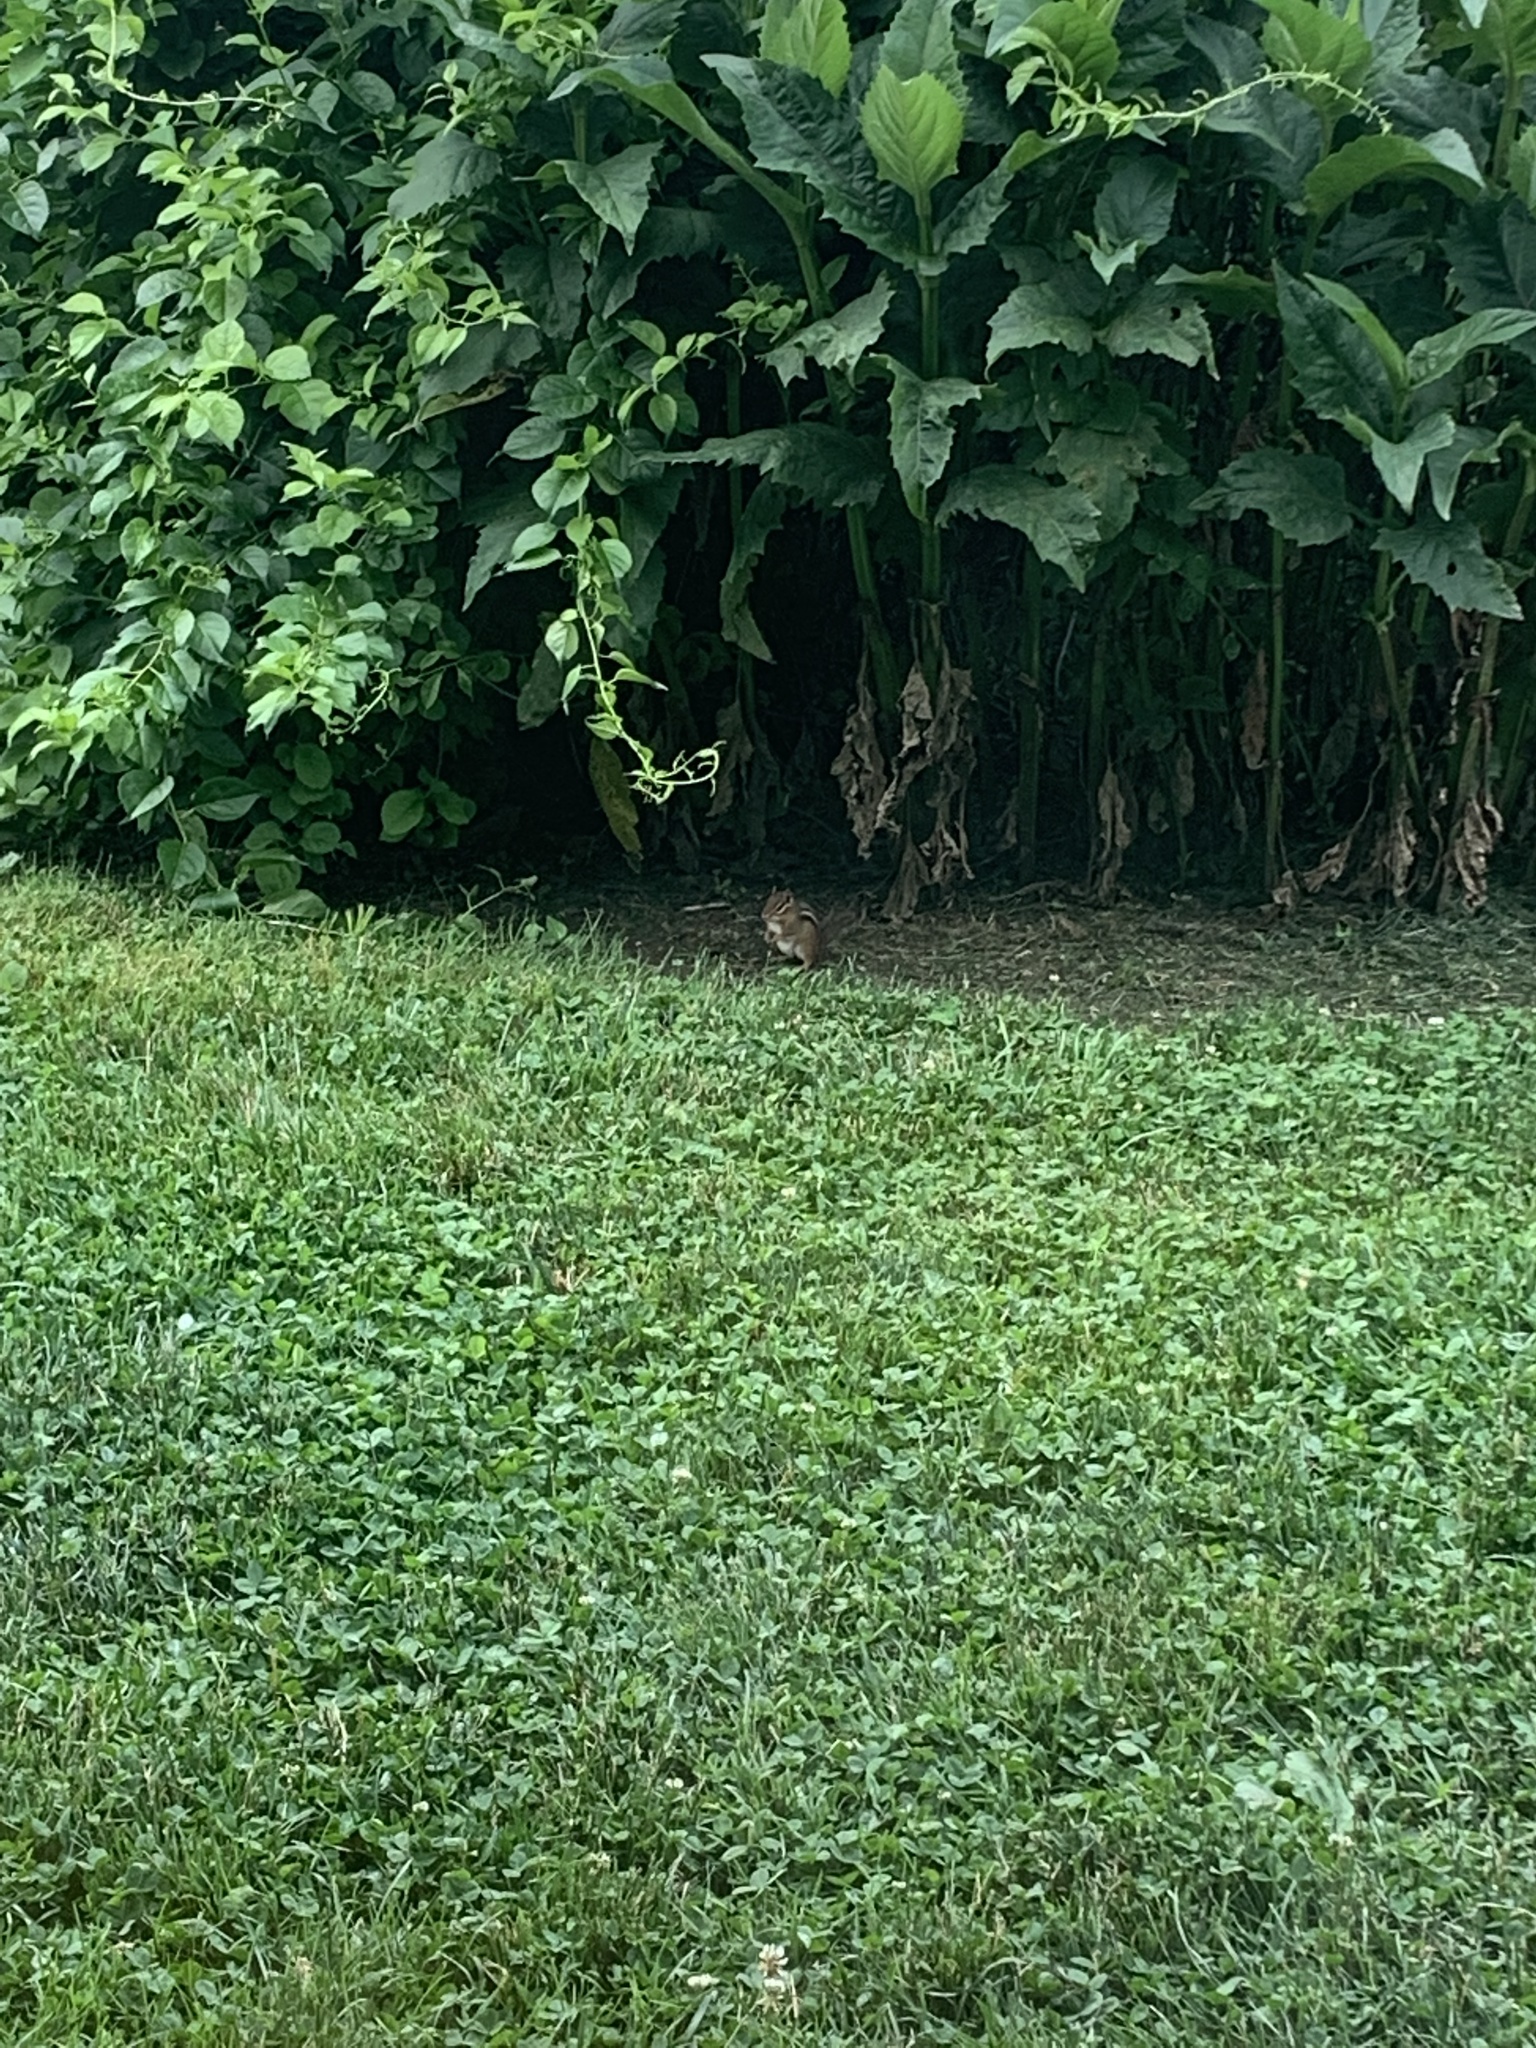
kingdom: Animalia
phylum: Chordata
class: Mammalia
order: Rodentia
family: Sciuridae
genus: Tamias
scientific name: Tamias striatus
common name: Eastern chipmunk
